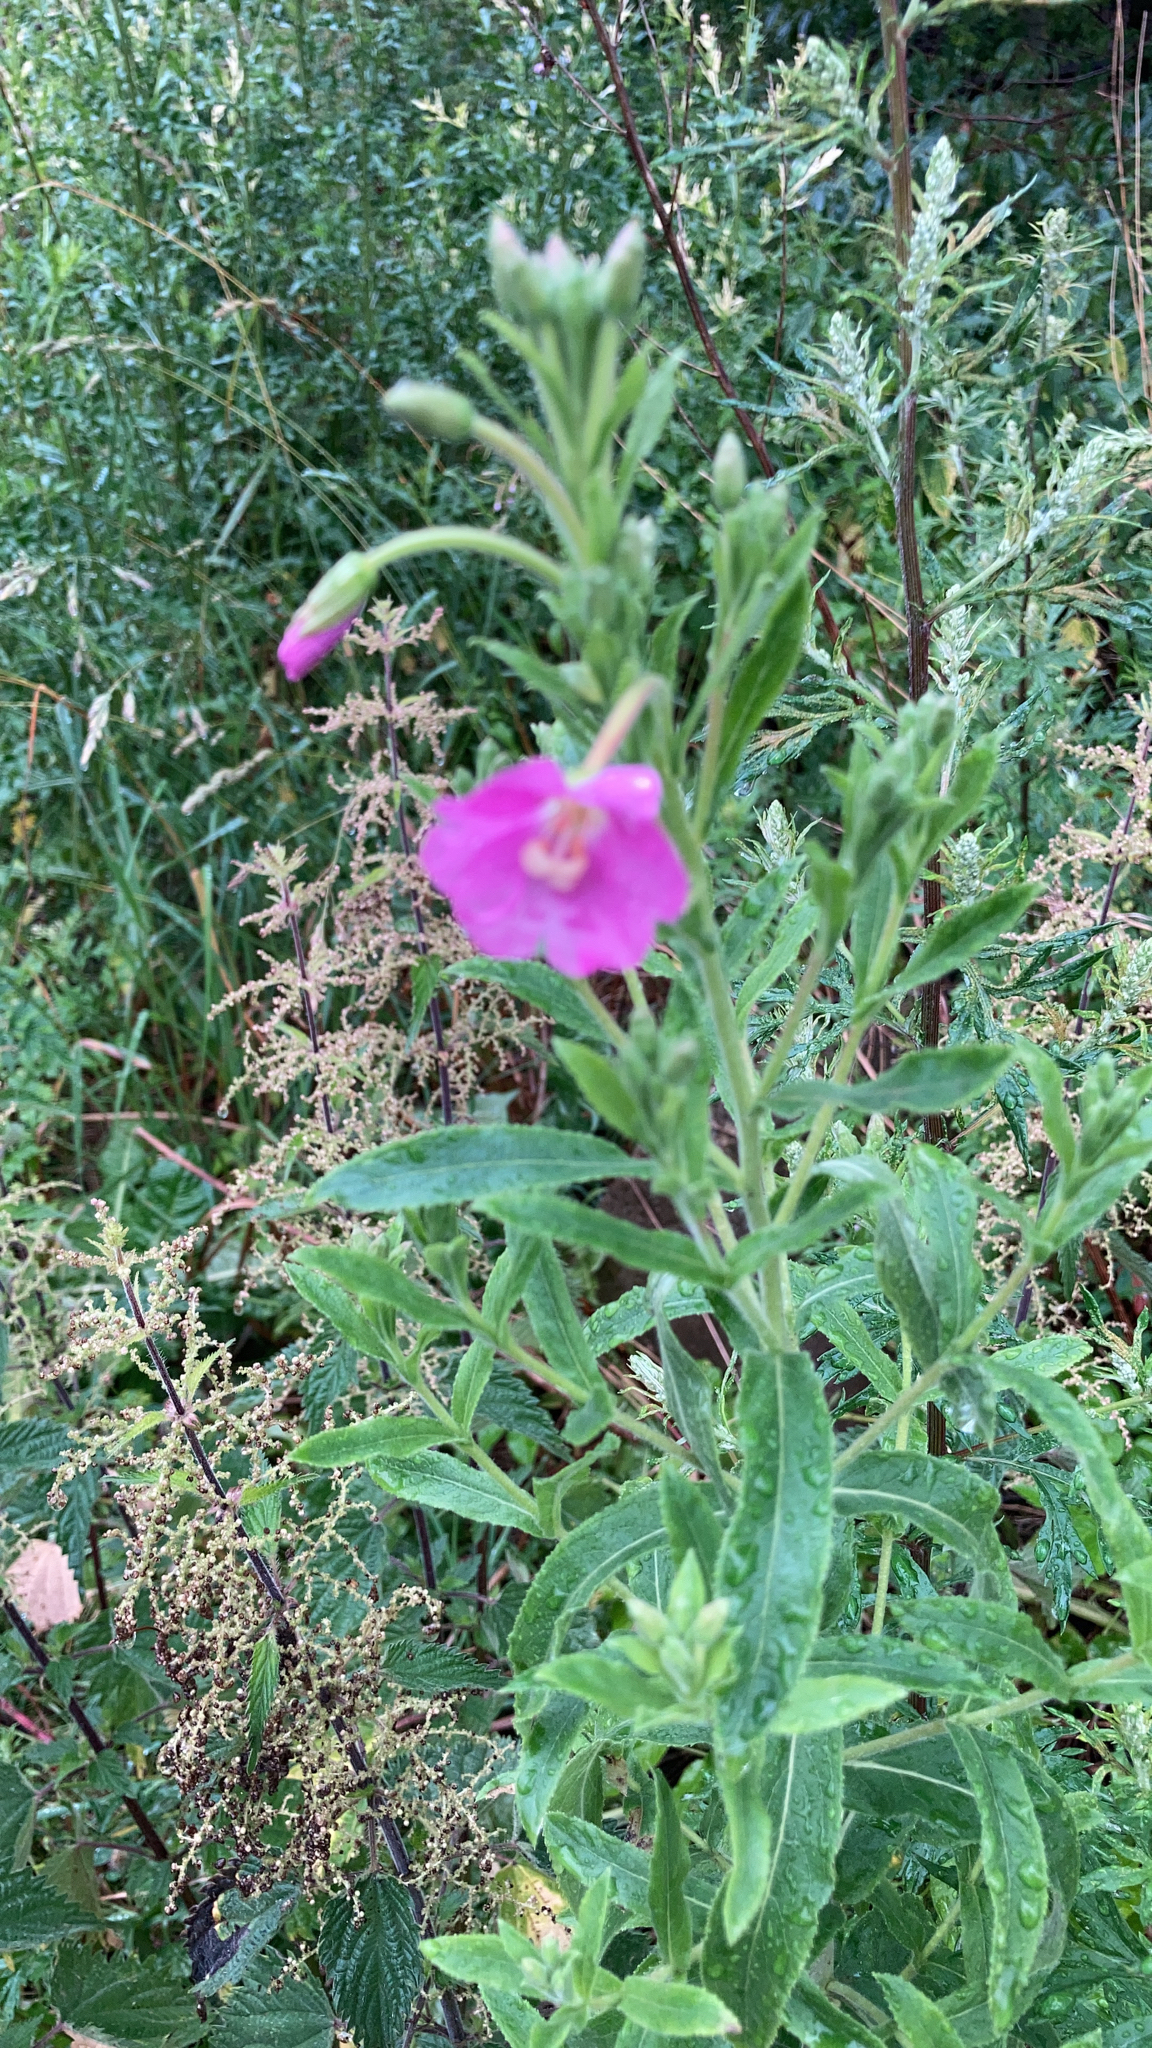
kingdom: Plantae
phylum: Tracheophyta
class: Magnoliopsida
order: Myrtales
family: Onagraceae
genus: Epilobium
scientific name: Epilobium hirsutum
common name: Great willowherb
